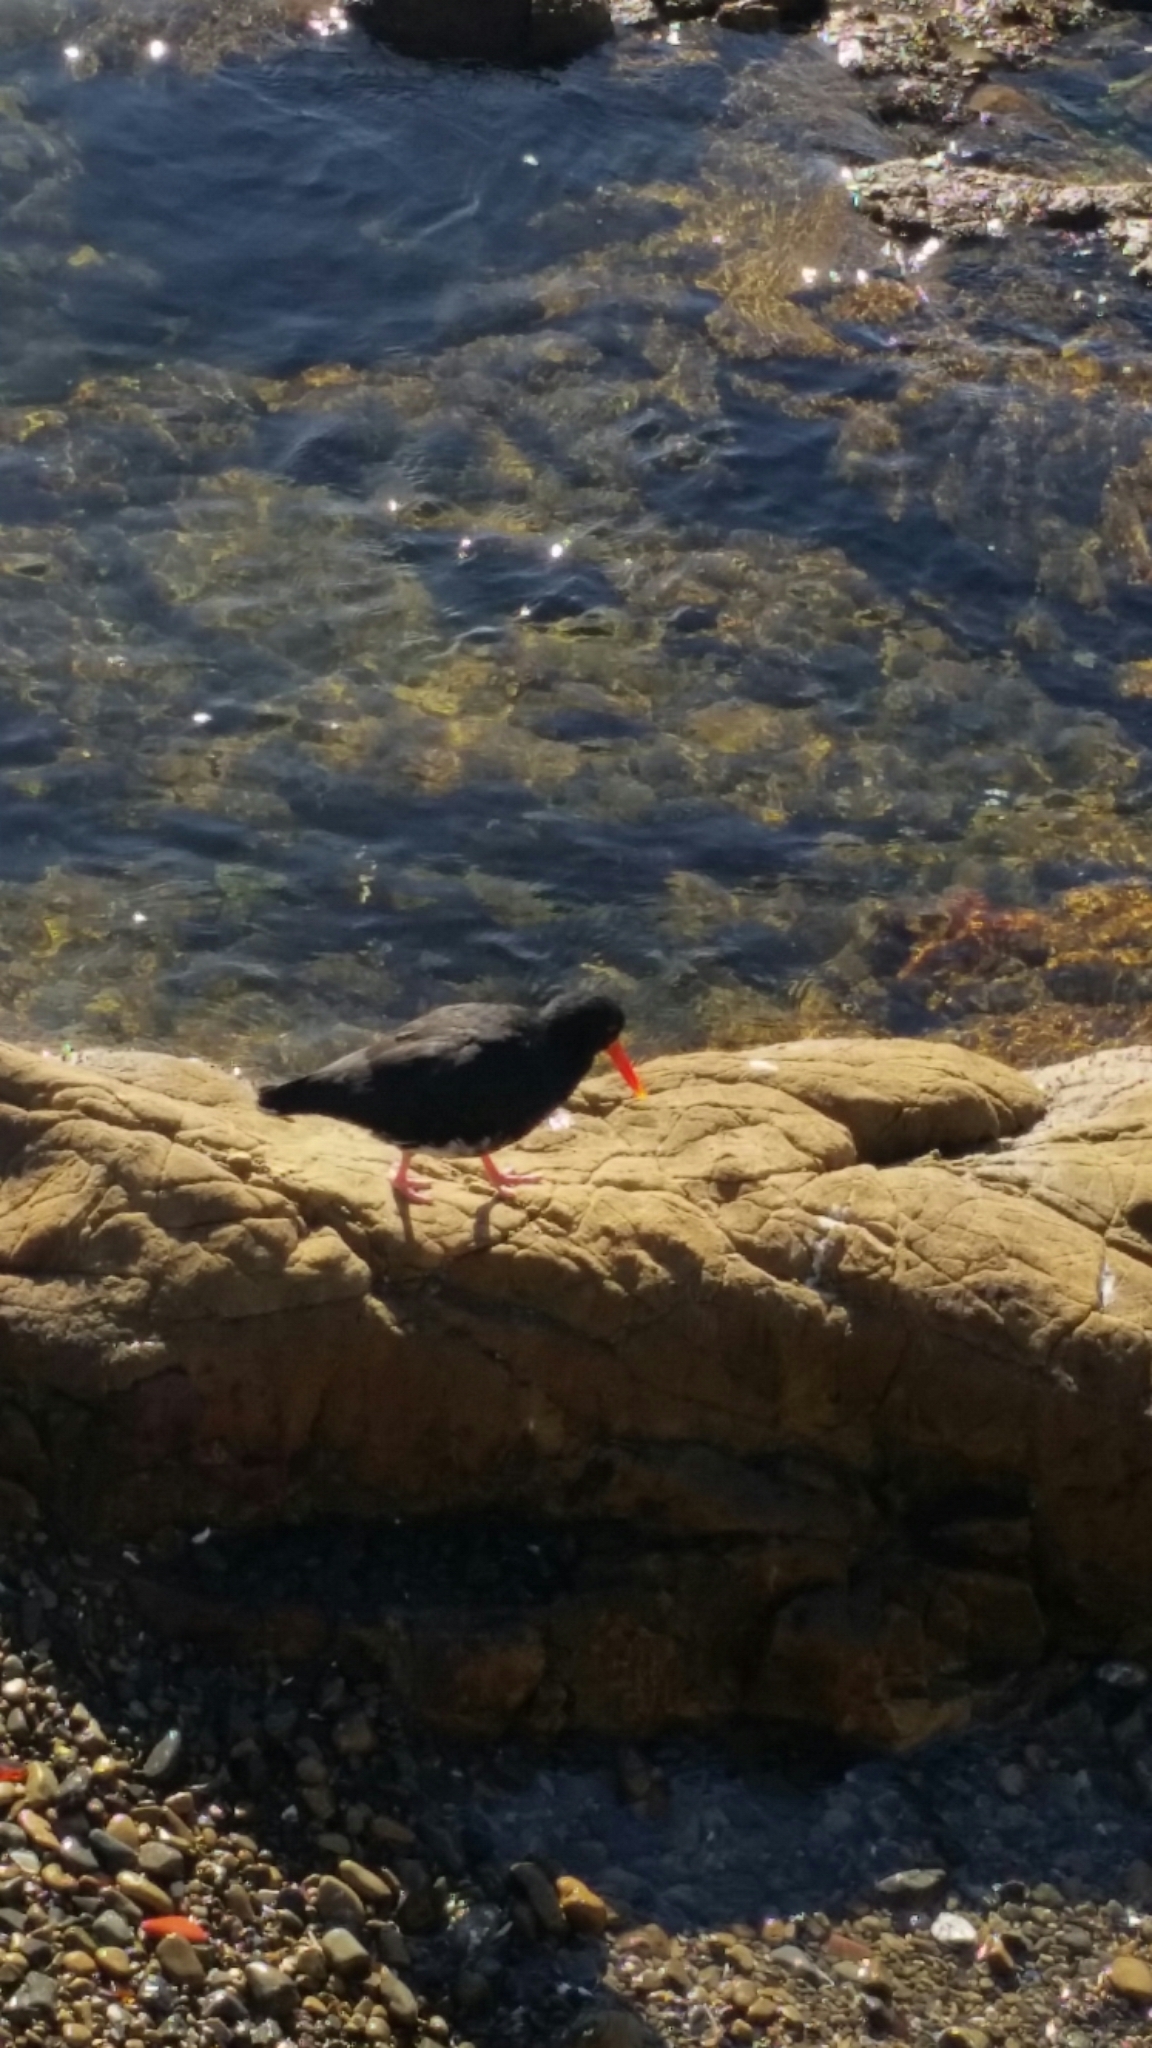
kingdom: Animalia
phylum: Chordata
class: Aves
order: Charadriiformes
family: Haematopodidae
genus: Haematopus
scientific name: Haematopus unicolor
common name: Variable oystercatcher
